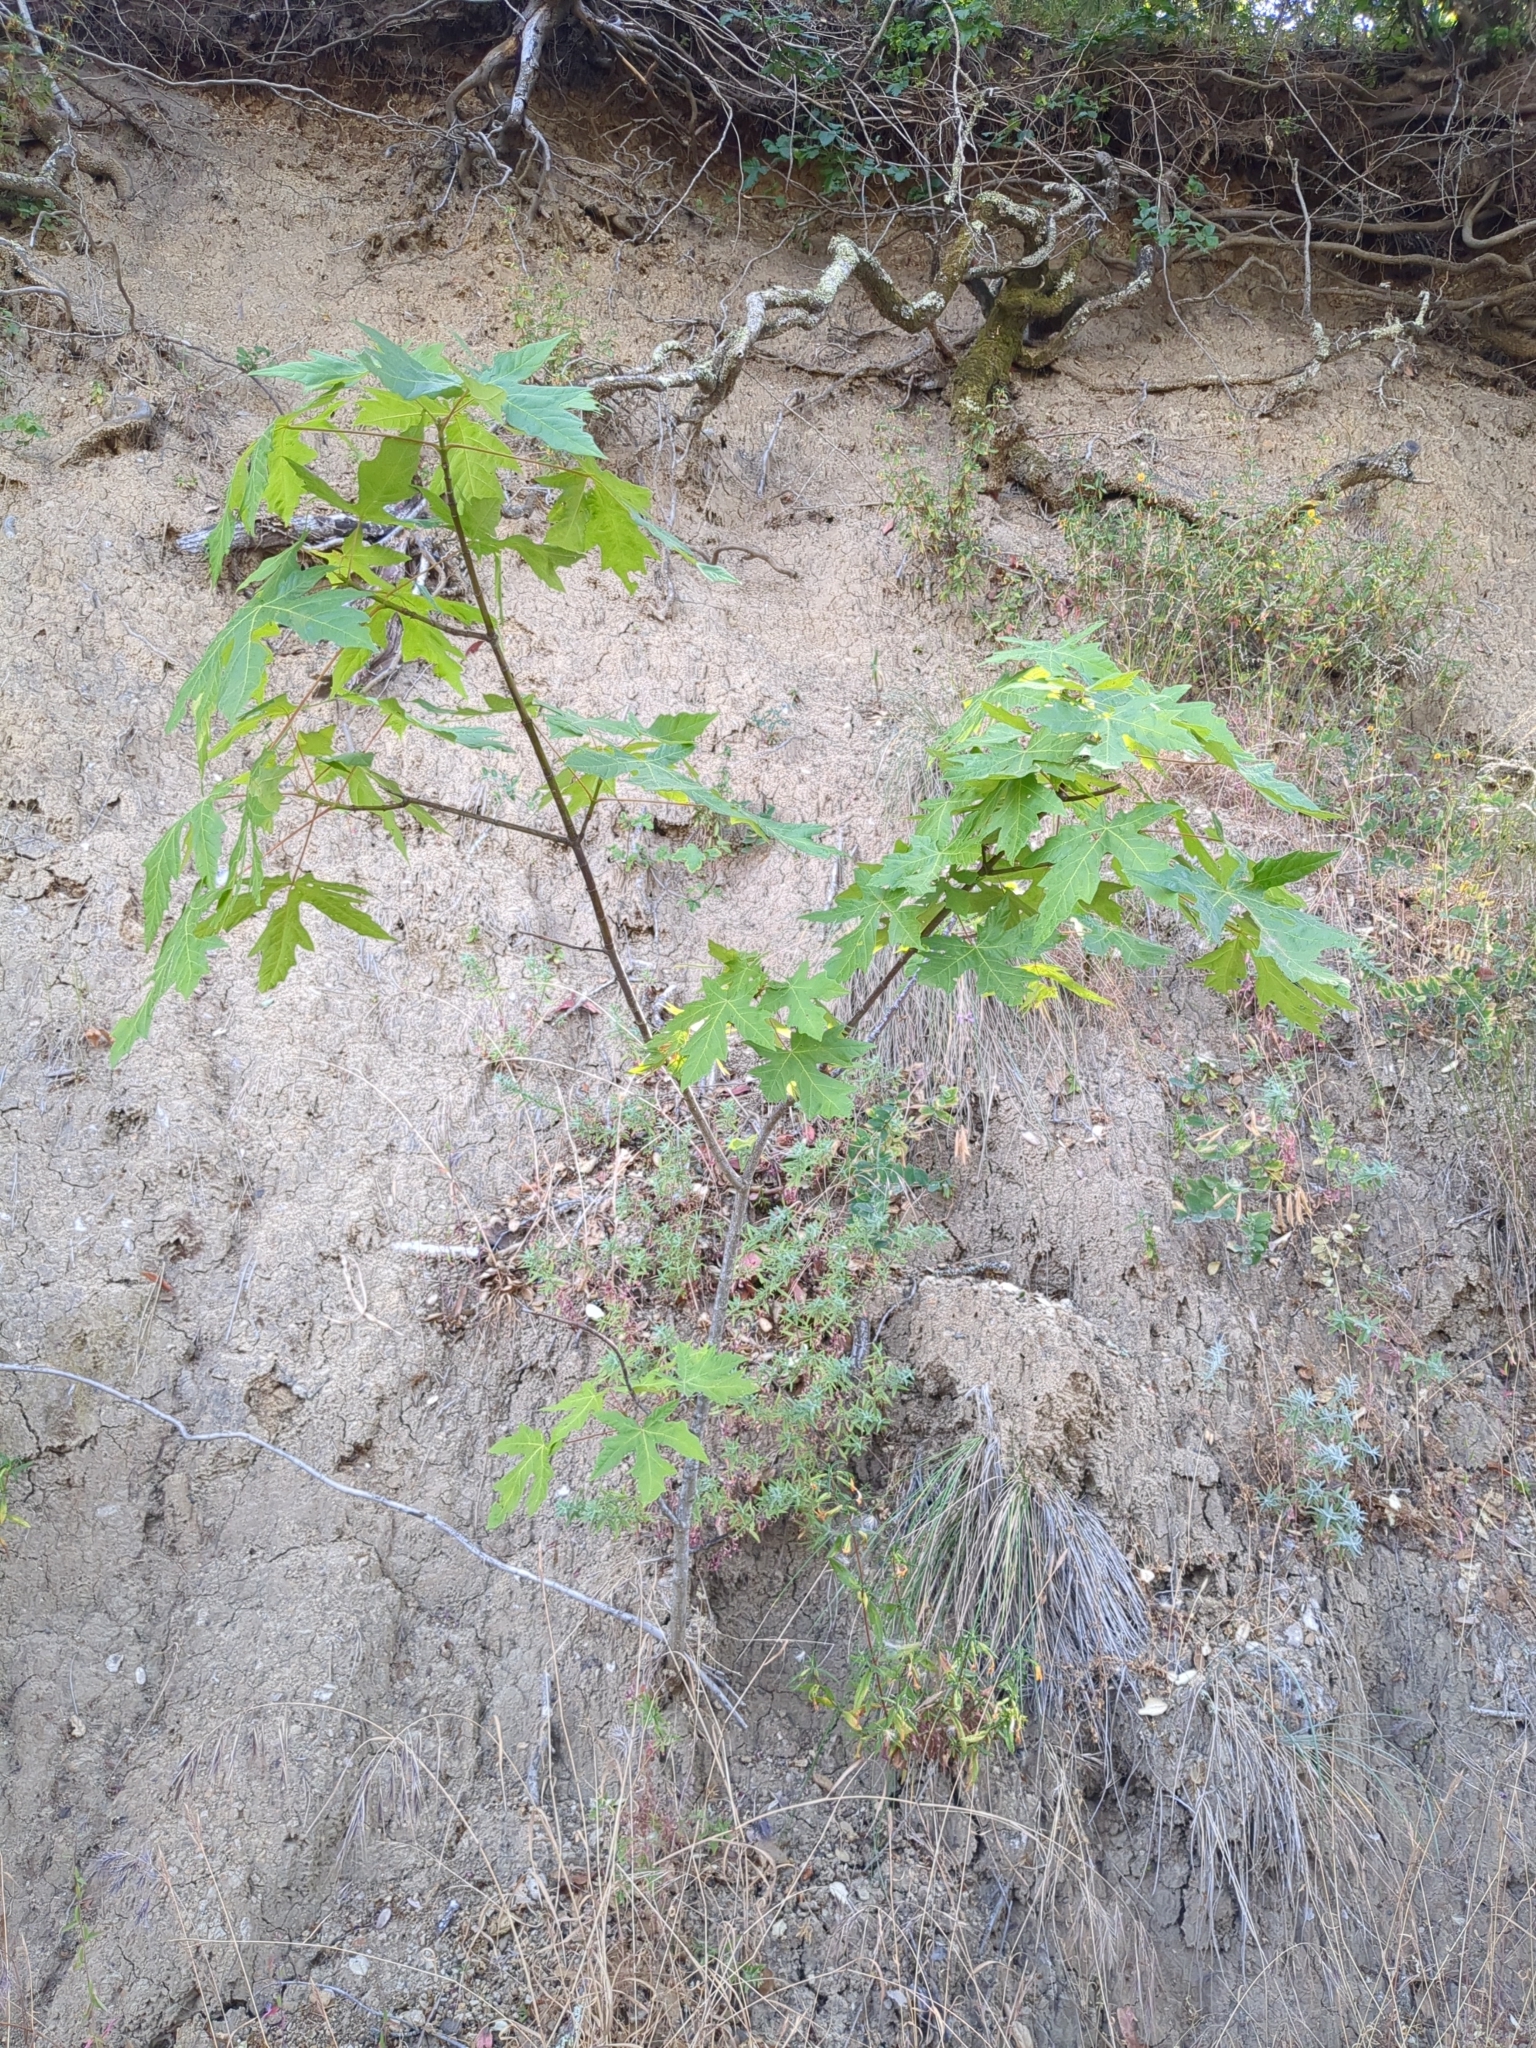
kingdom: Plantae
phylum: Tracheophyta
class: Magnoliopsida
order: Sapindales
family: Sapindaceae
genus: Acer
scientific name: Acer macrophyllum
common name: Oregon maple
